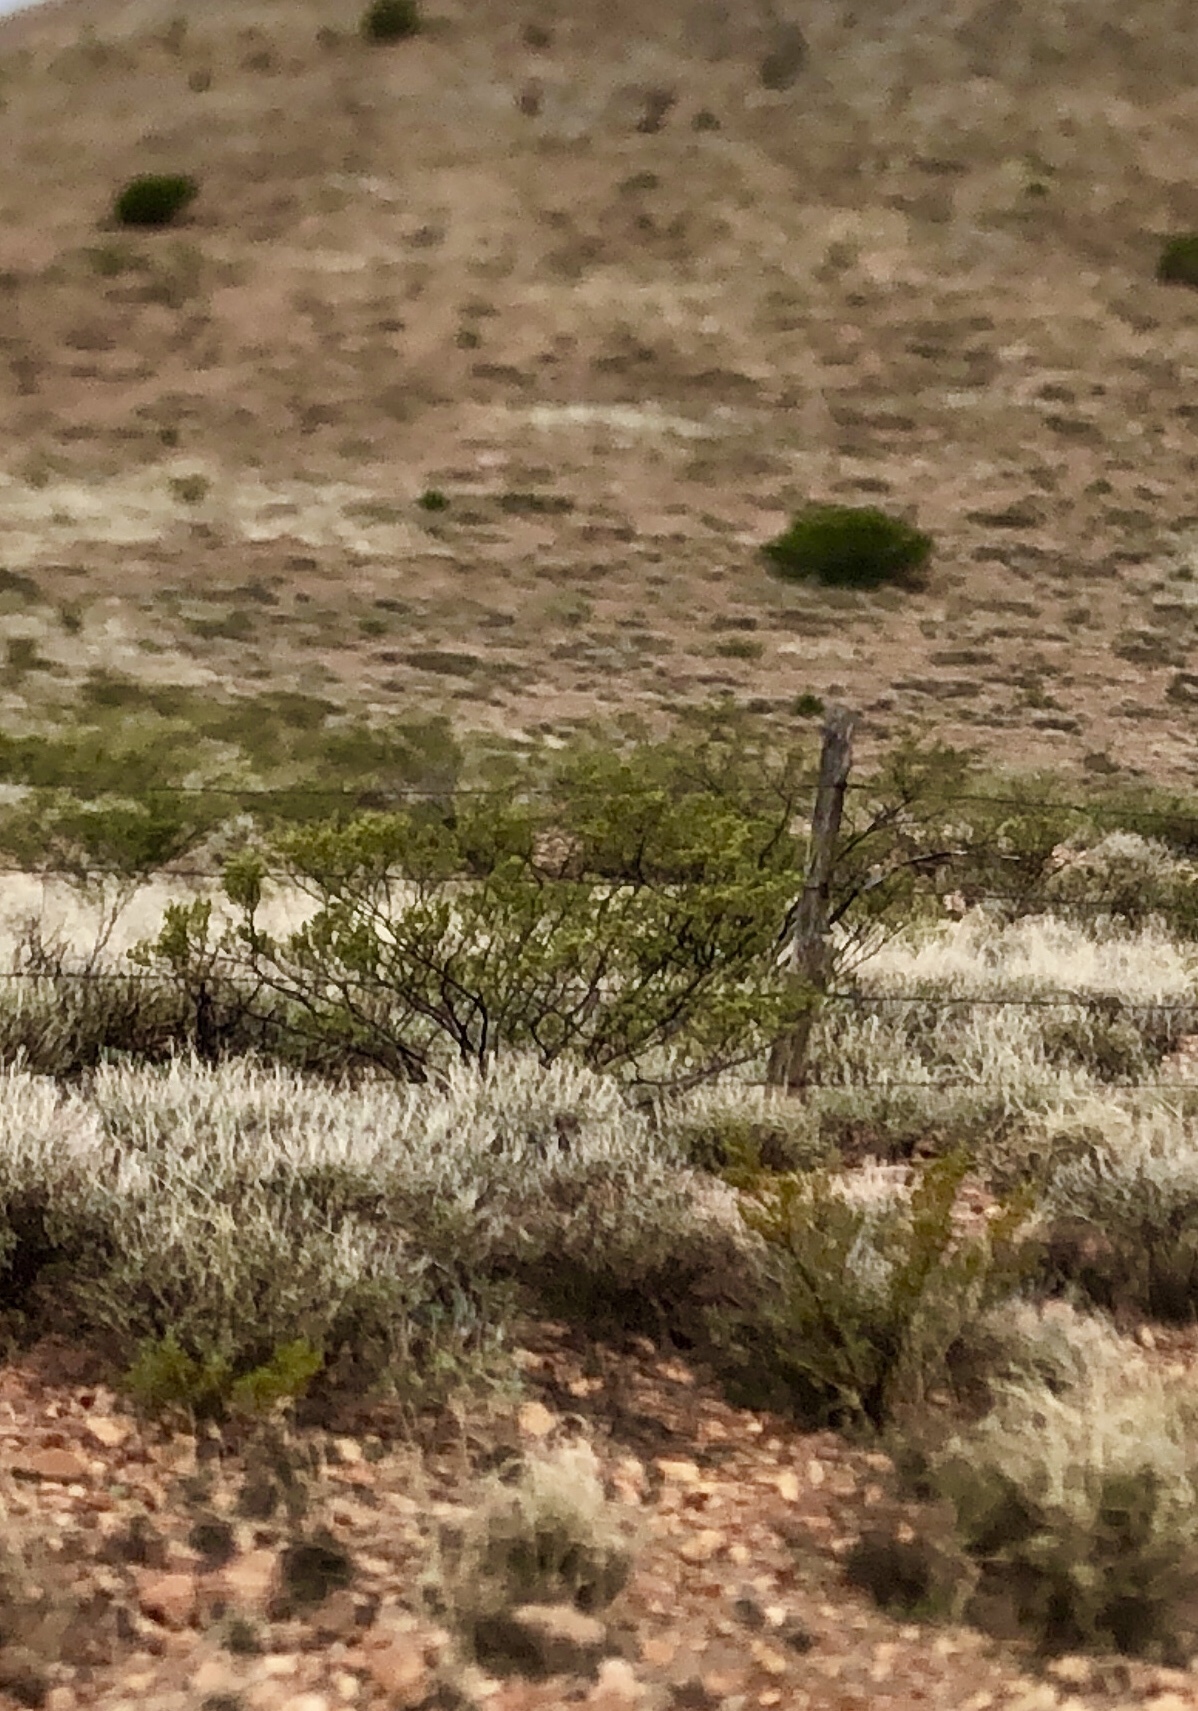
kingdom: Plantae
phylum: Tracheophyta
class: Magnoliopsida
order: Zygophyllales
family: Zygophyllaceae
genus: Larrea
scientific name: Larrea tridentata
